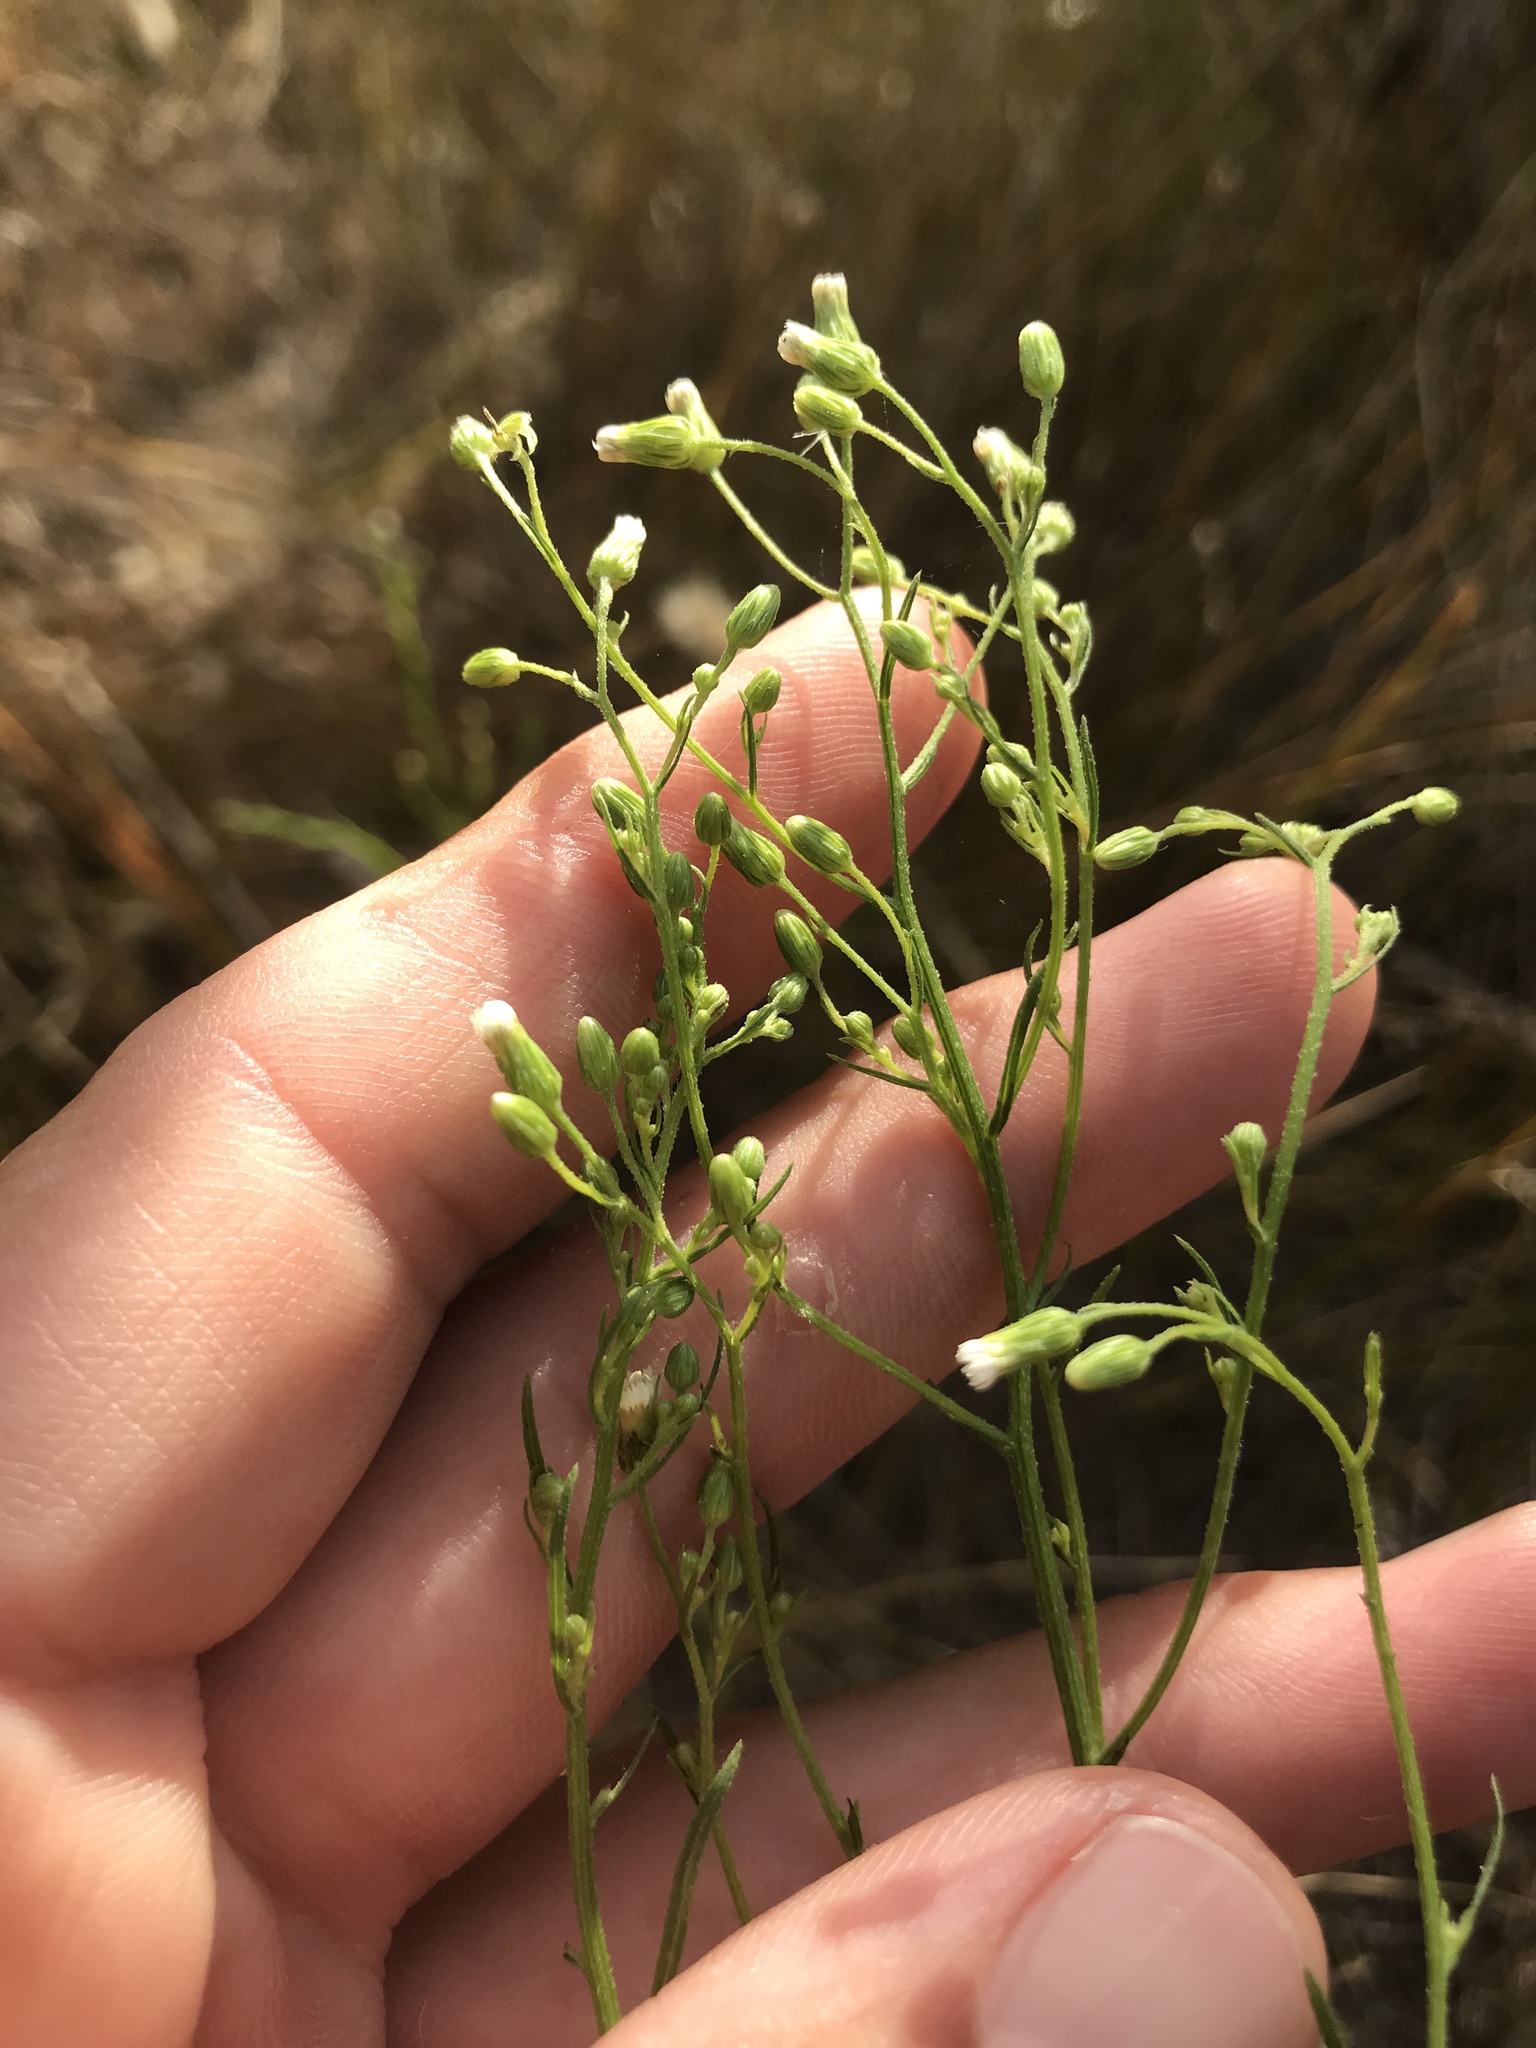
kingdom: Plantae
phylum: Tracheophyta
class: Magnoliopsida
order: Asterales
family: Asteraceae
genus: Erigeron
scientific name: Erigeron canadensis
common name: Canadian fleabane
